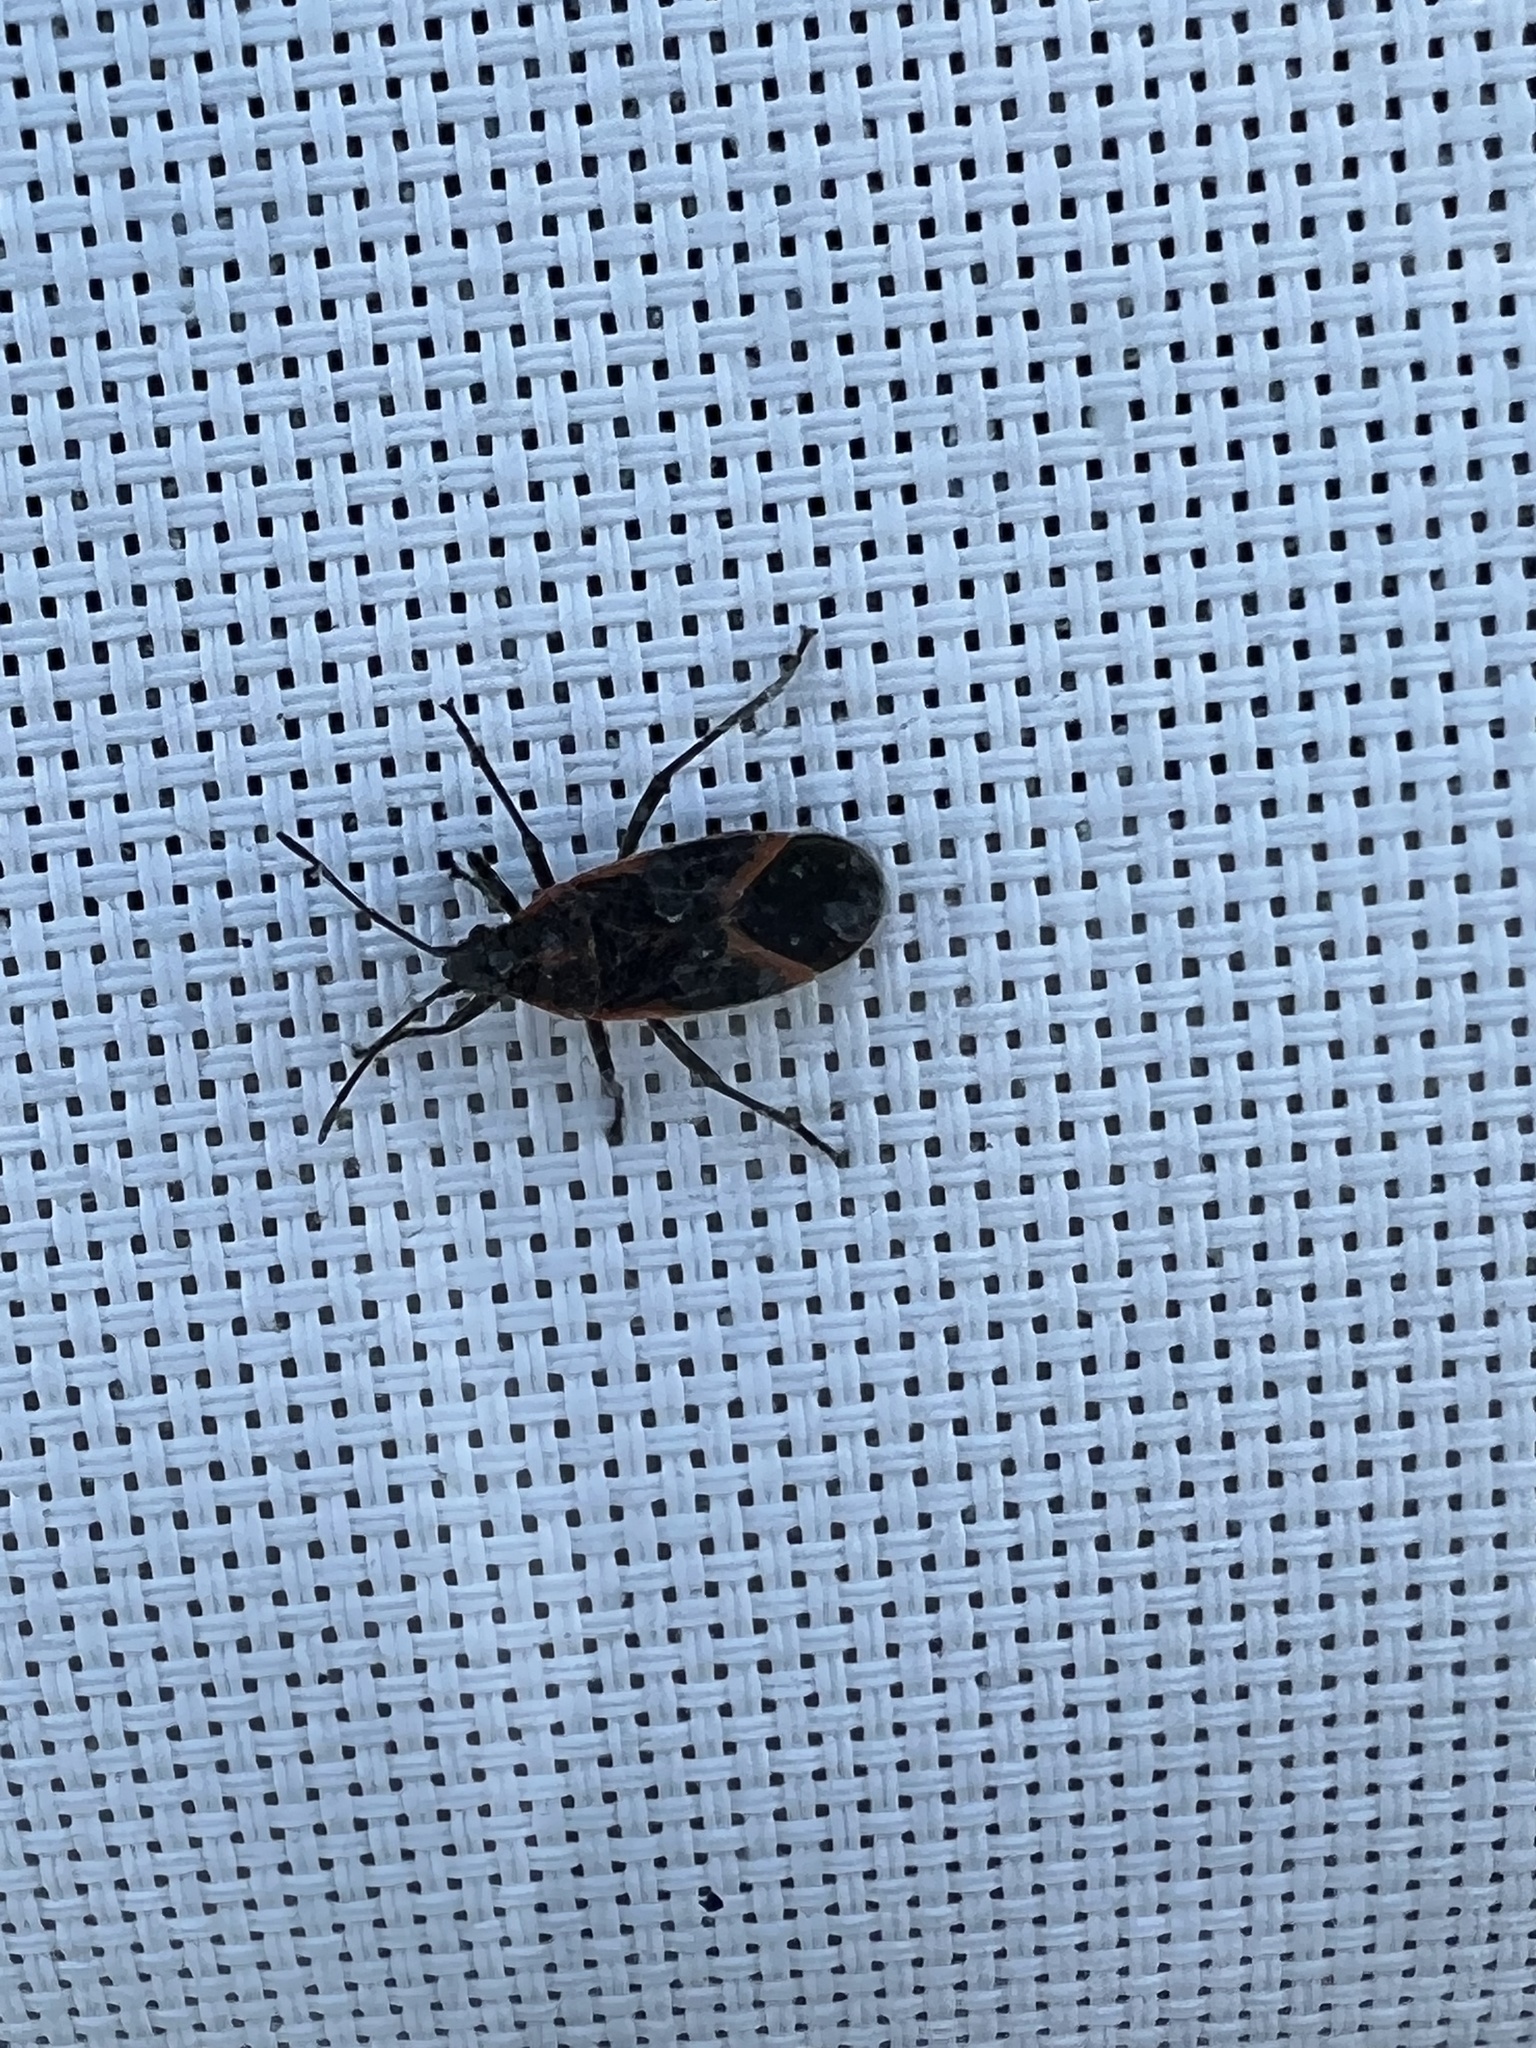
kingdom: Animalia
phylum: Arthropoda
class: Insecta
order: Hemiptera
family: Rhopalidae
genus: Boisea
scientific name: Boisea trivittata
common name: Boxelder bug
